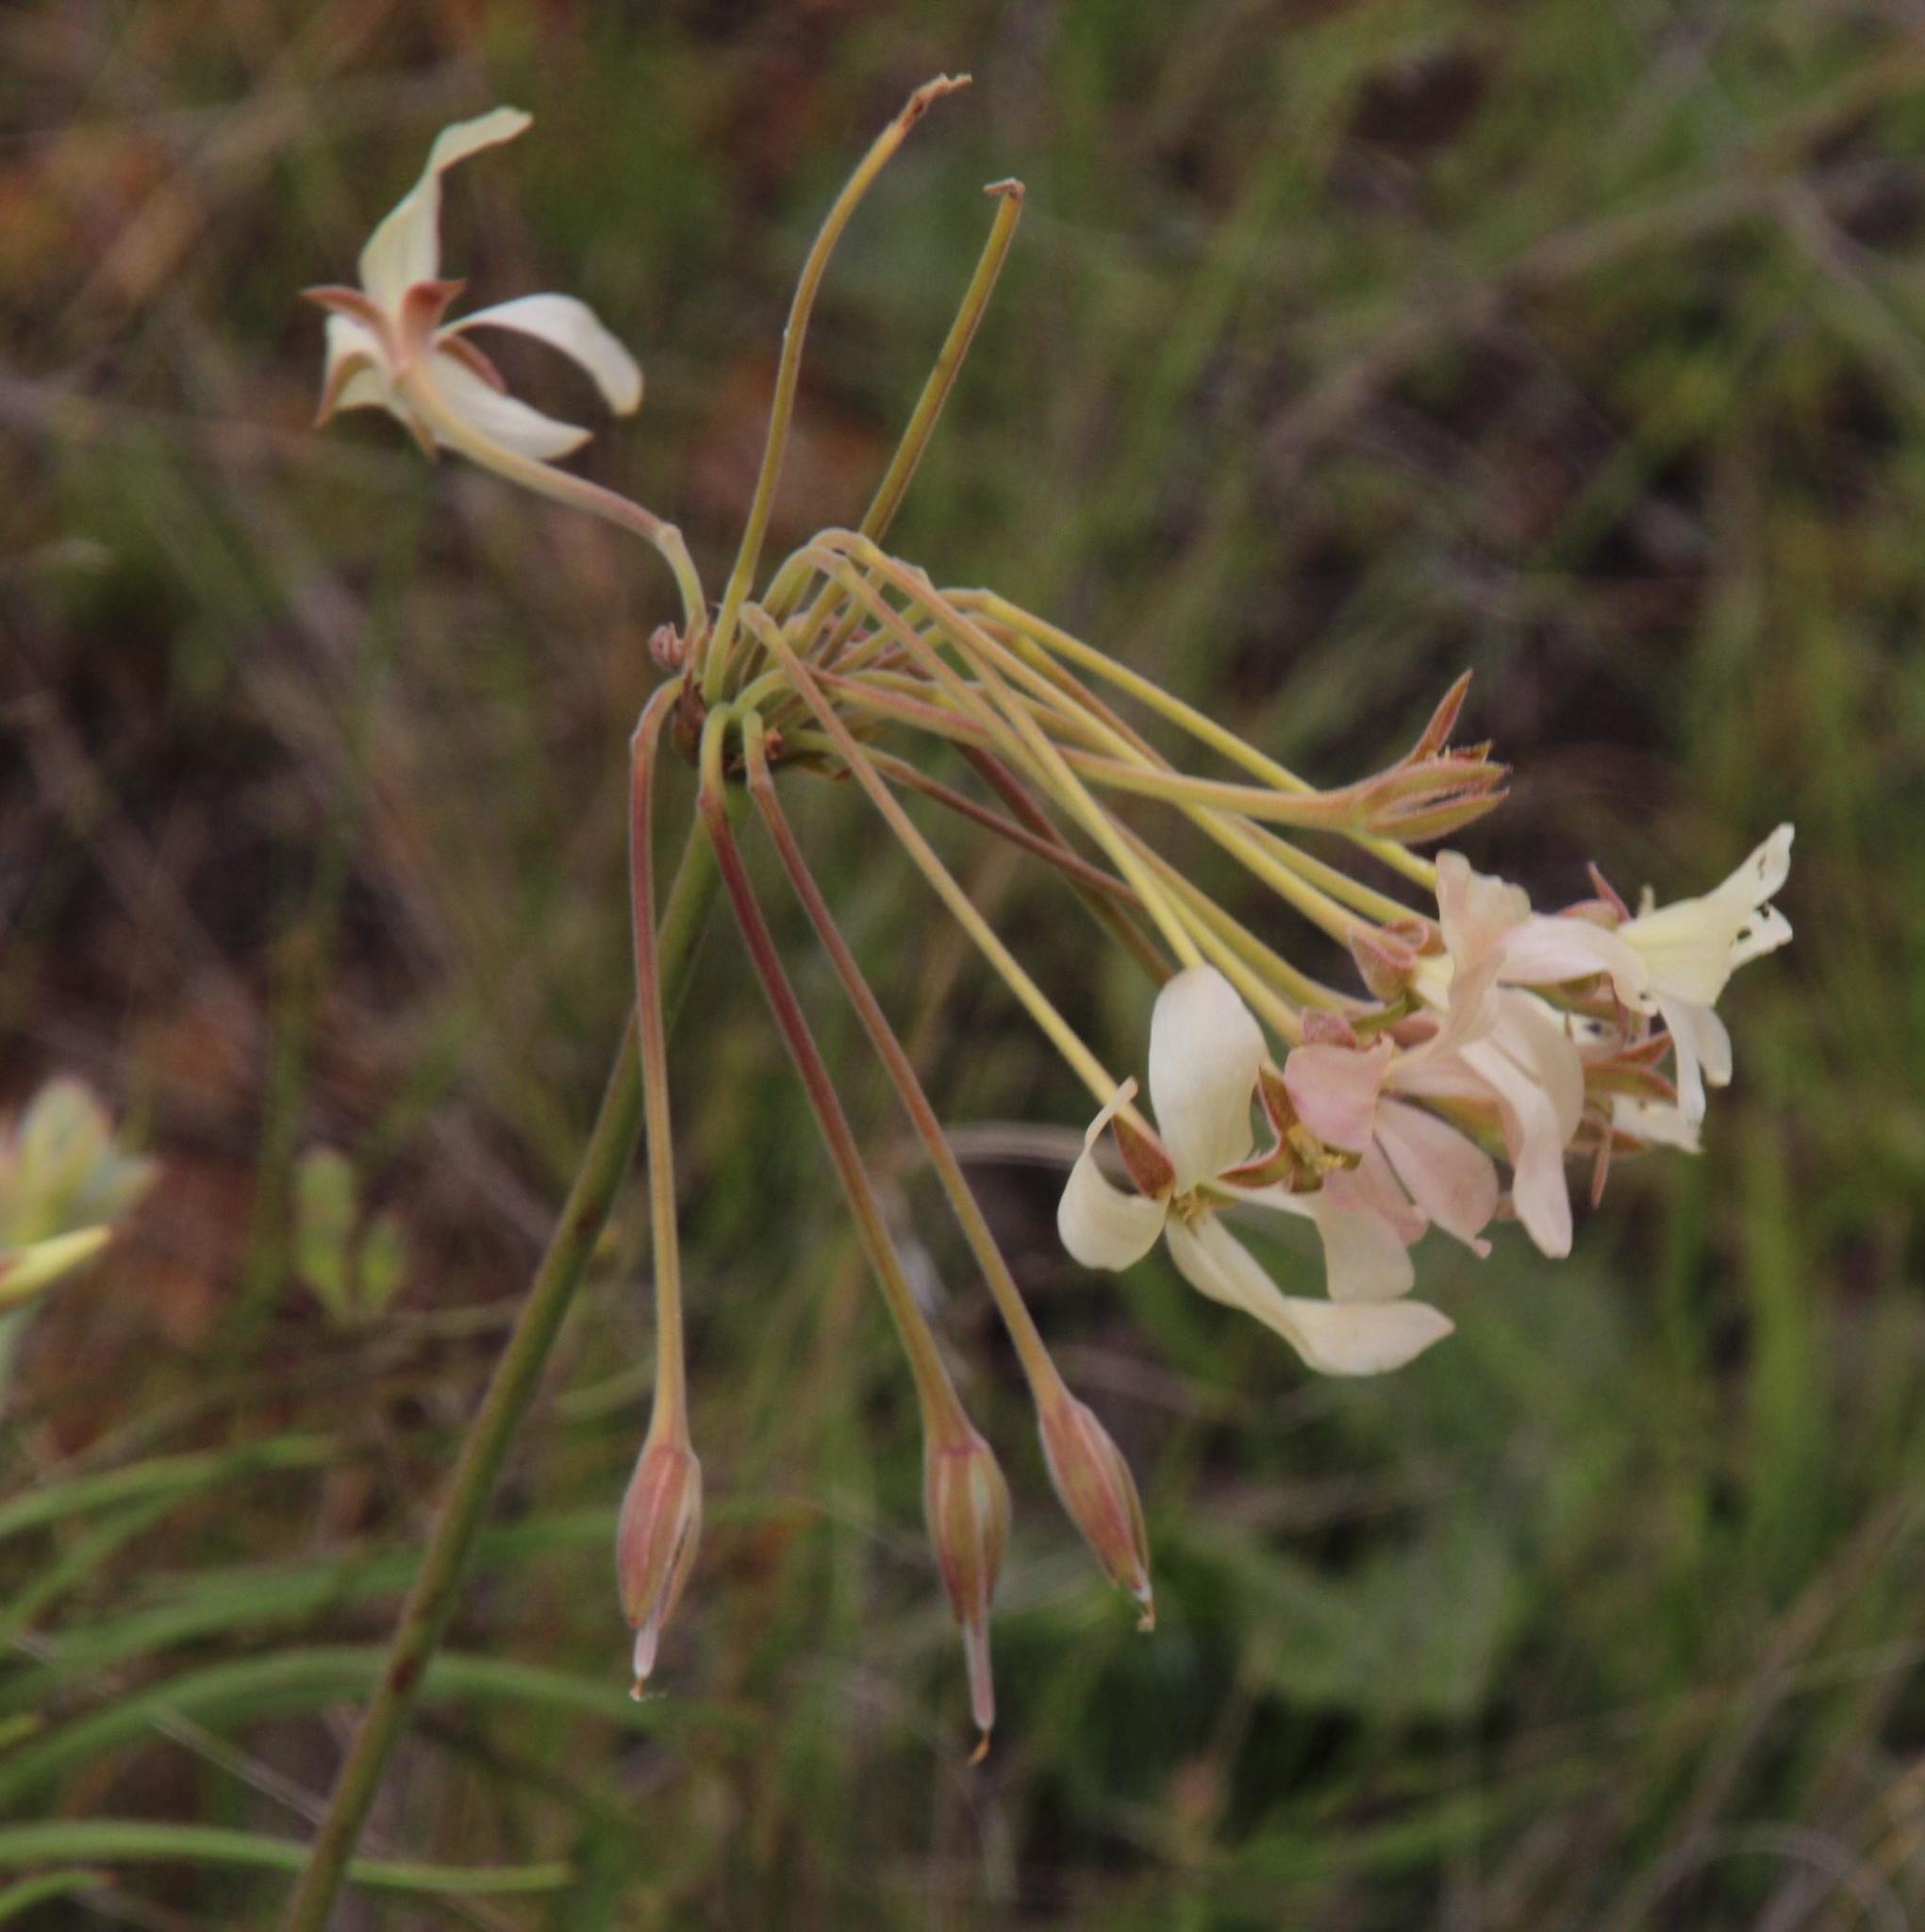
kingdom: Plantae
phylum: Tracheophyta
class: Magnoliopsida
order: Geraniales
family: Geraniaceae
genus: Pelargonium
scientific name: Pelargonium luridum
